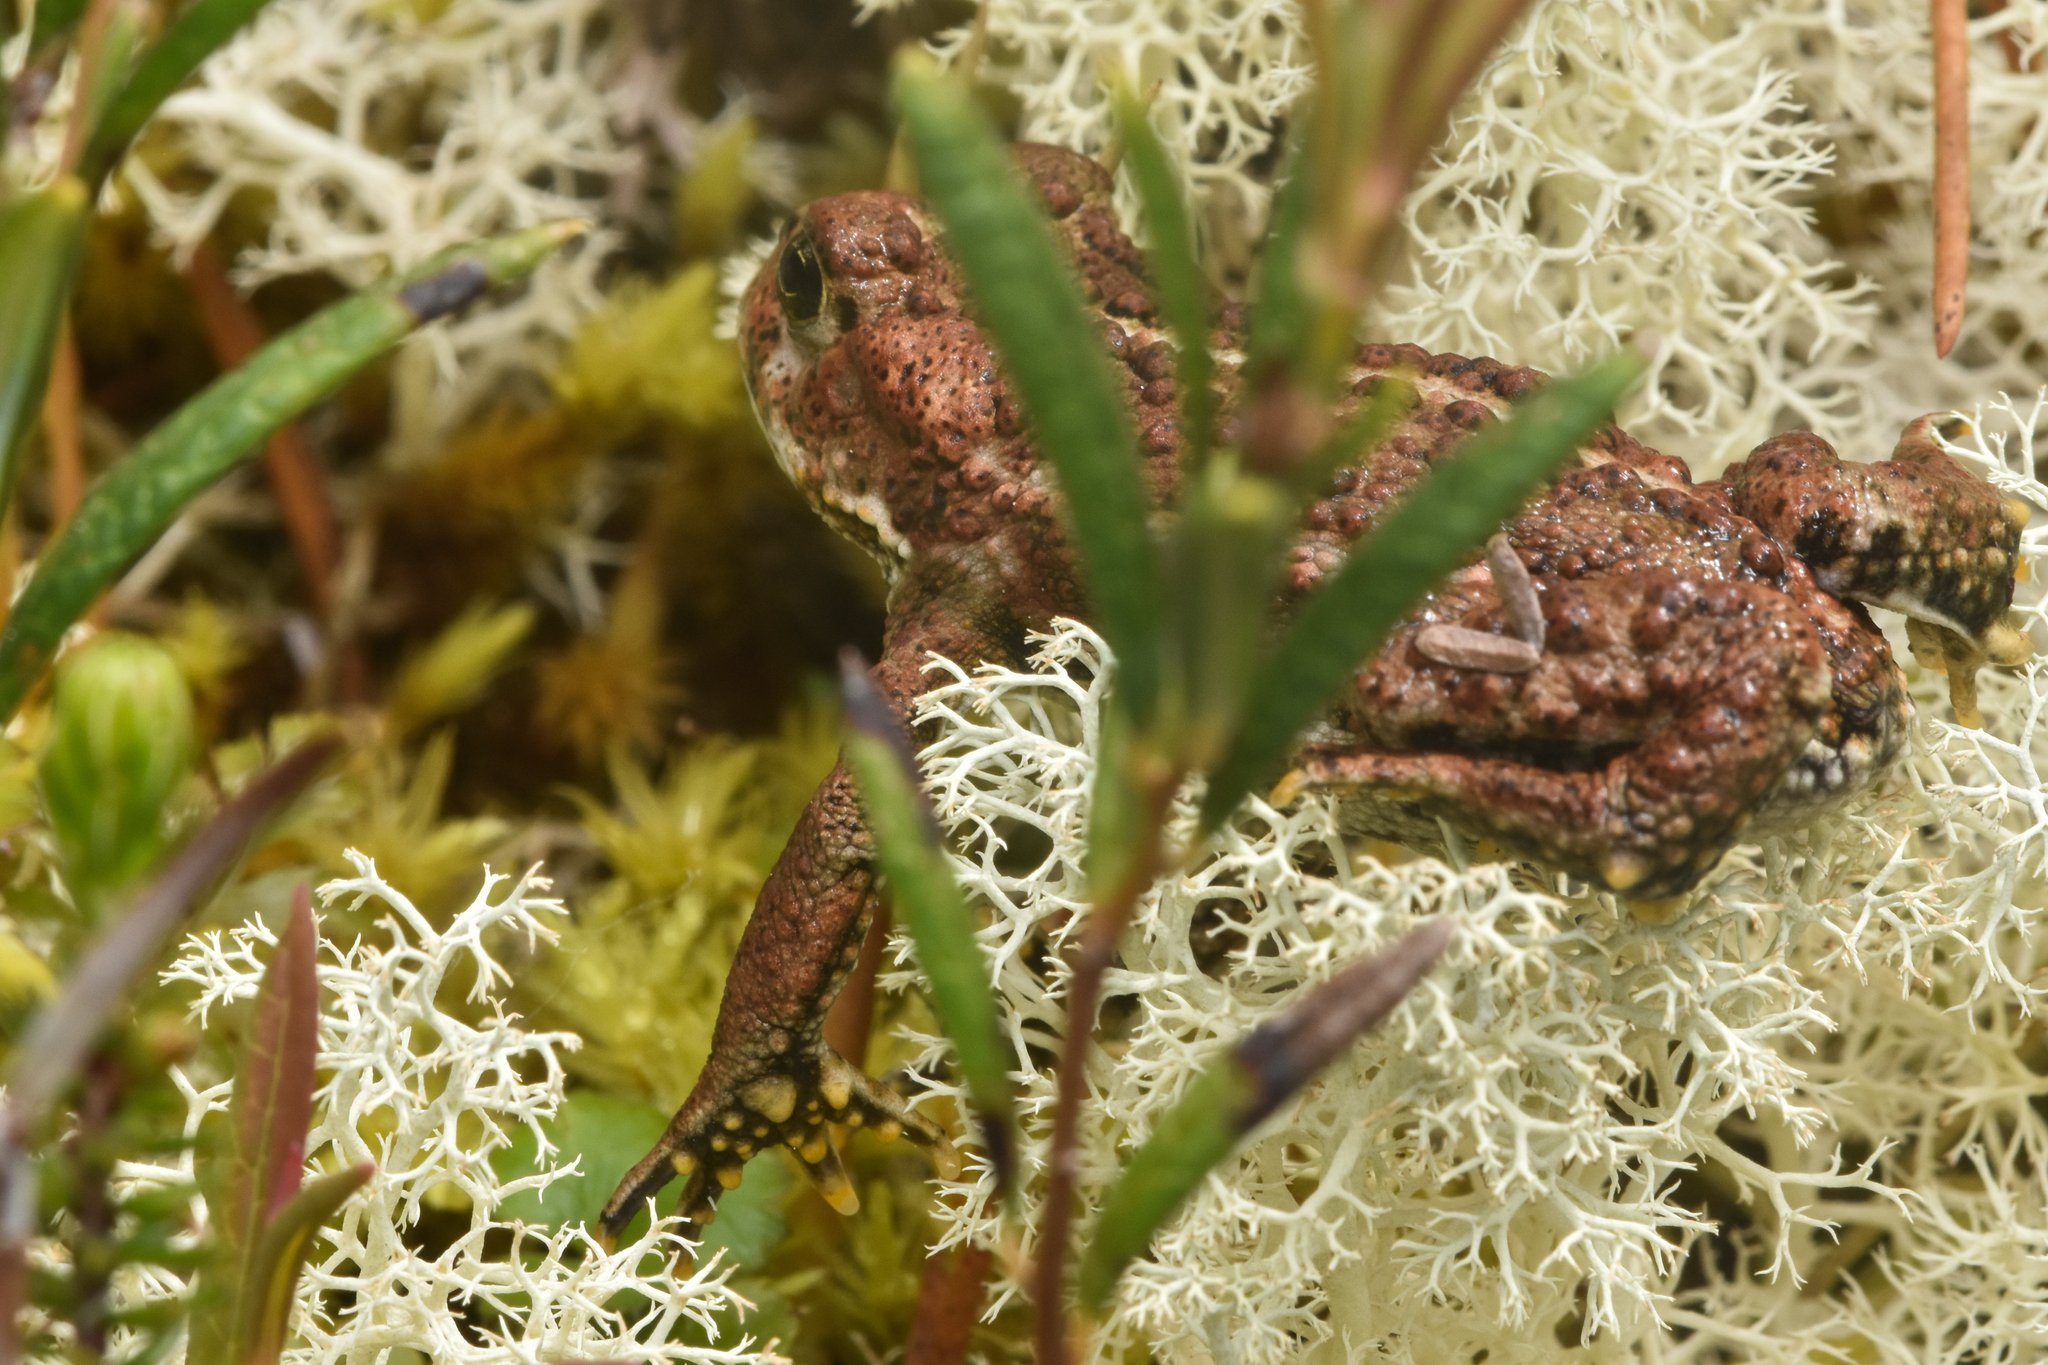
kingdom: Animalia
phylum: Chordata
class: Amphibia
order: Anura
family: Bufonidae
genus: Anaxyrus
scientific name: Anaxyrus boreas
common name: Western toad
